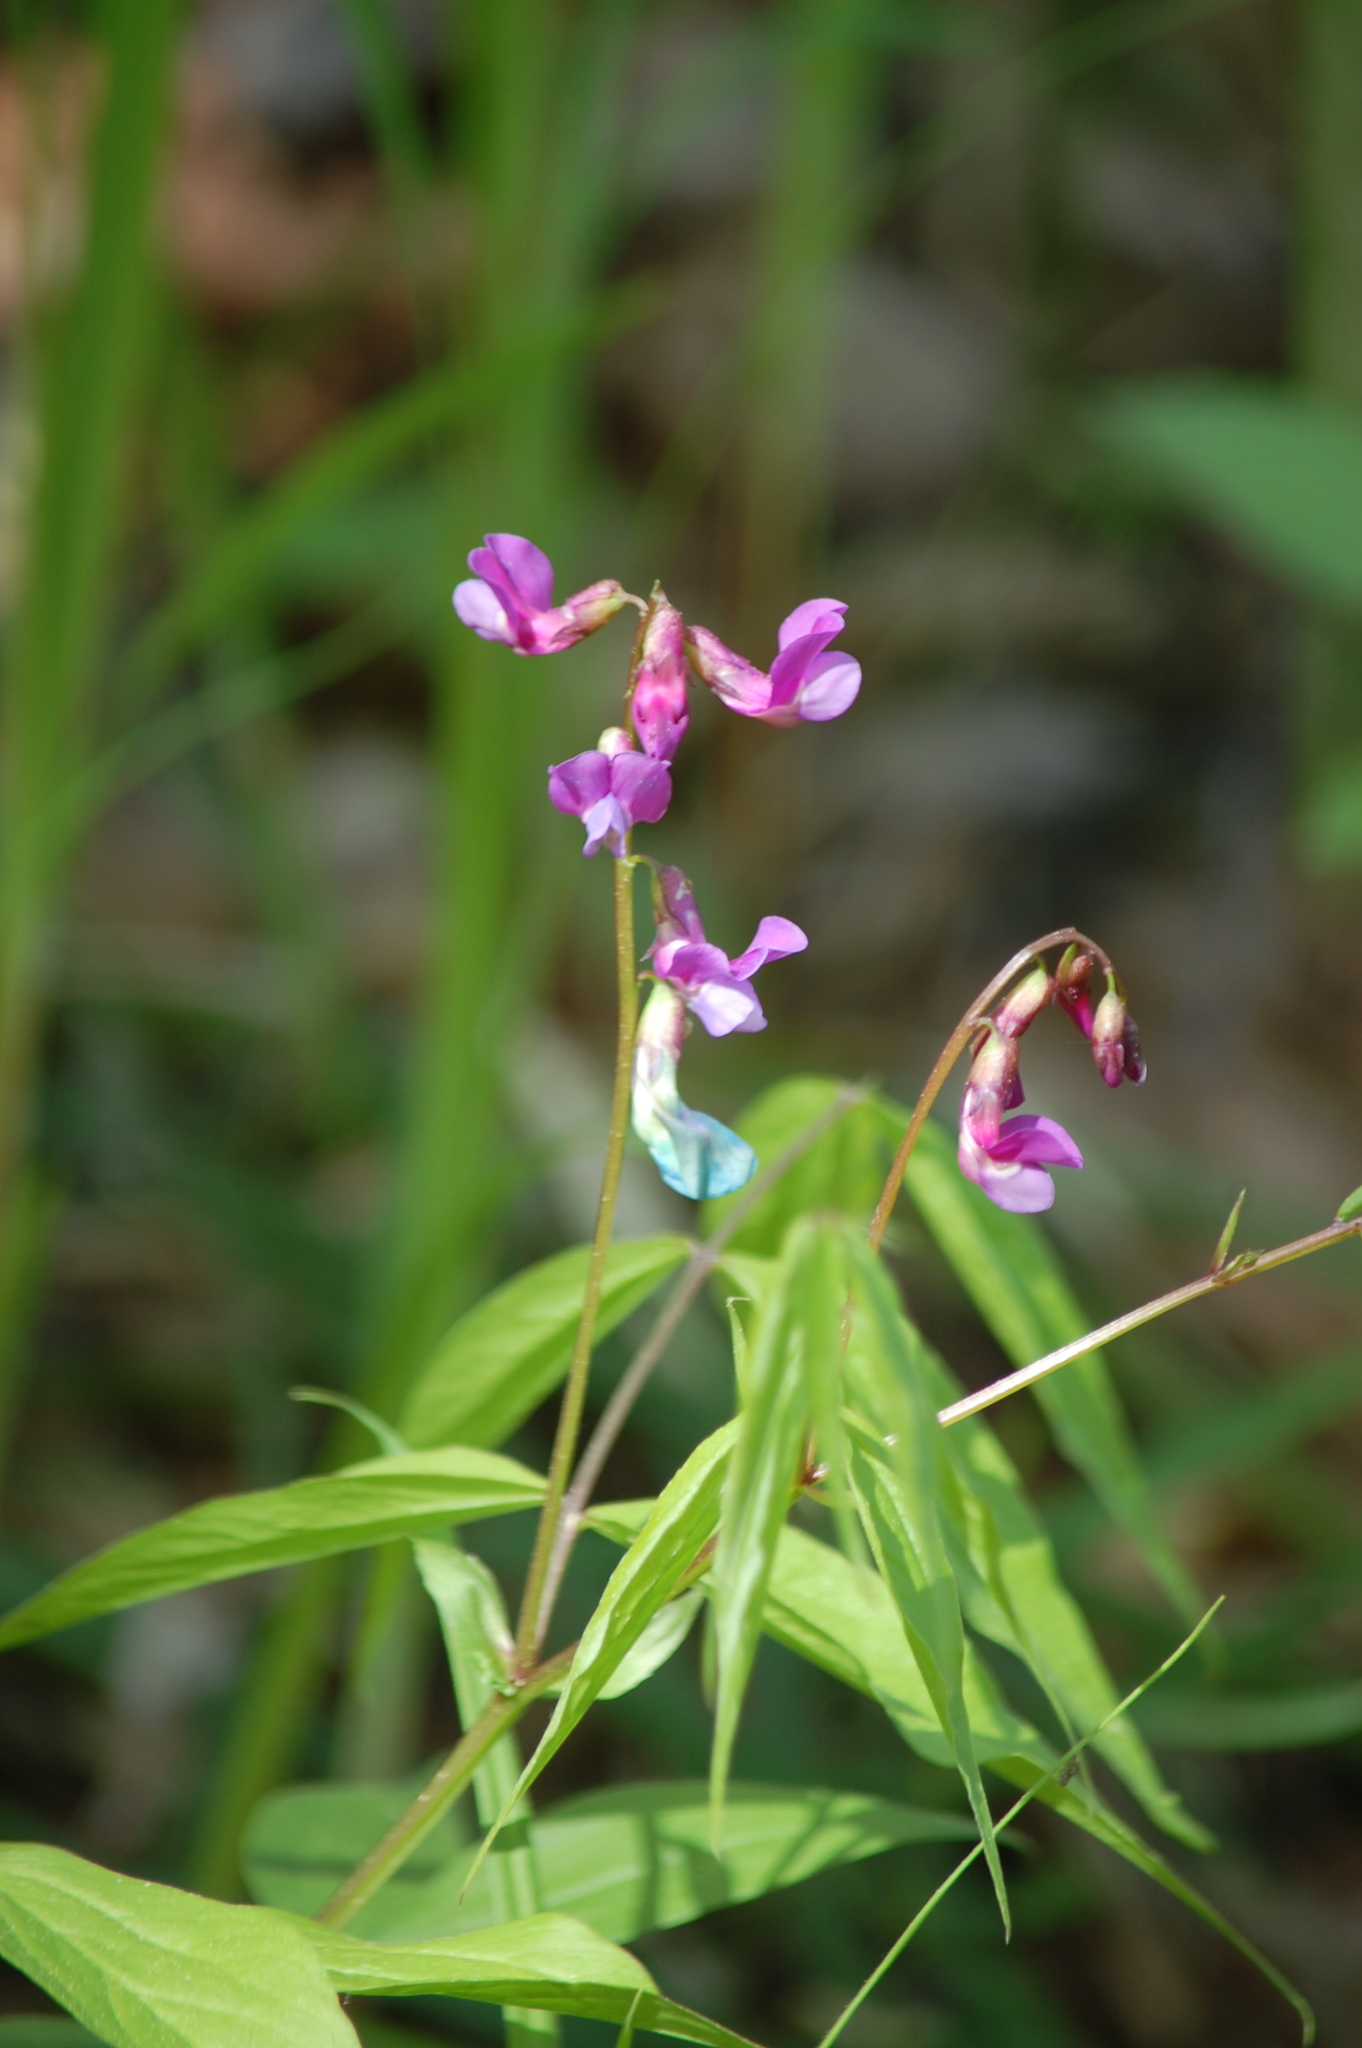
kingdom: Plantae
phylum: Tracheophyta
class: Magnoliopsida
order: Fabales
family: Fabaceae
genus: Lathyrus
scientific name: Lathyrus vernus
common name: Spring pea
